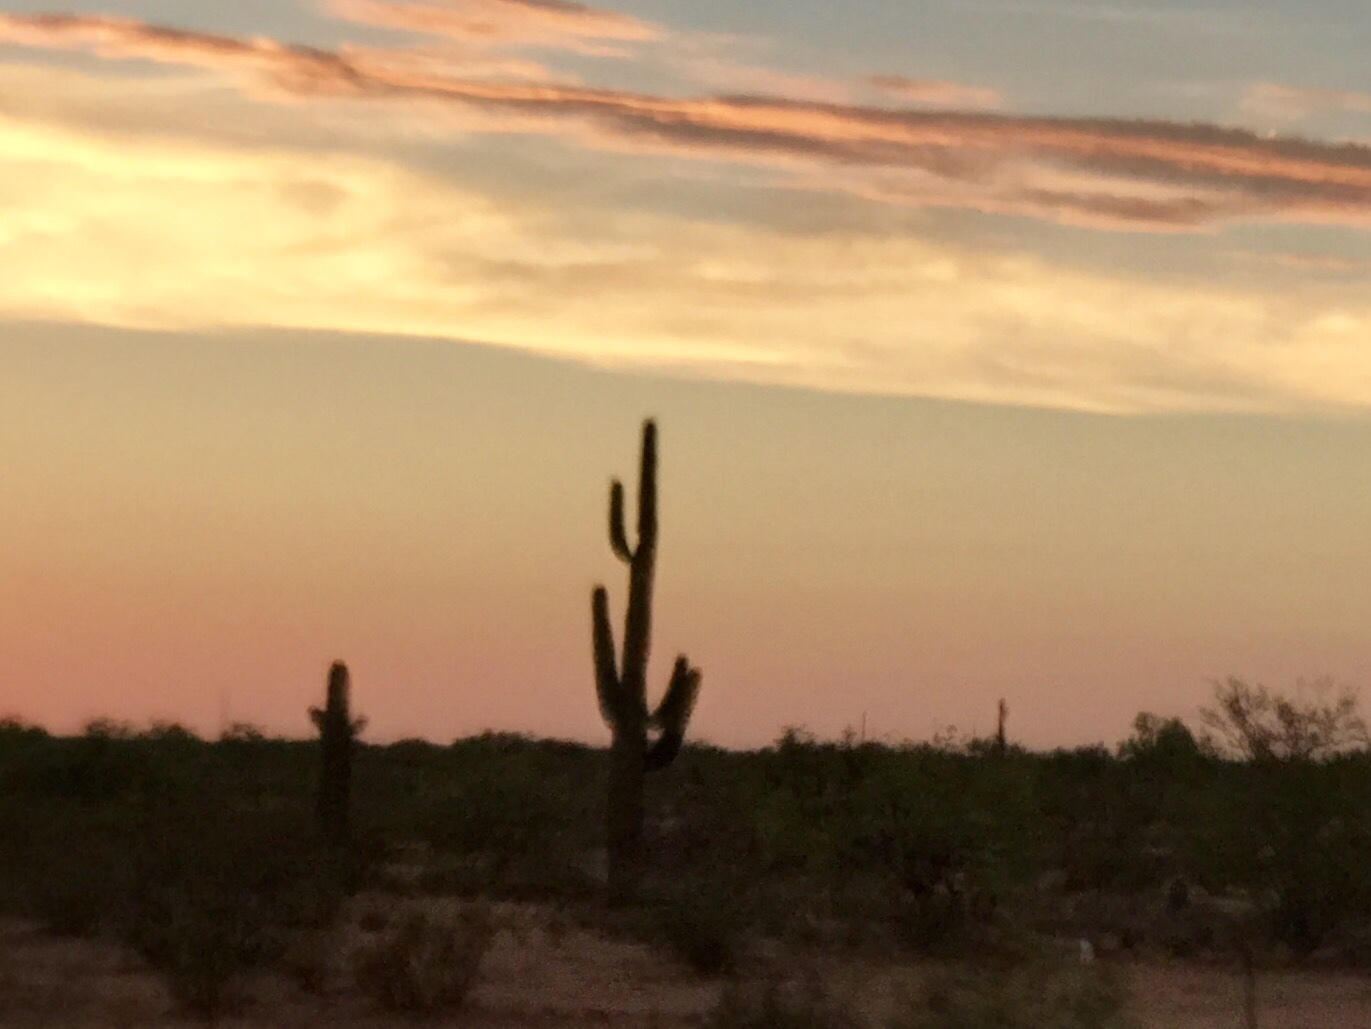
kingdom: Plantae
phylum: Tracheophyta
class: Magnoliopsida
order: Caryophyllales
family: Cactaceae
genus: Carnegiea
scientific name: Carnegiea gigantea
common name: Saguaro
